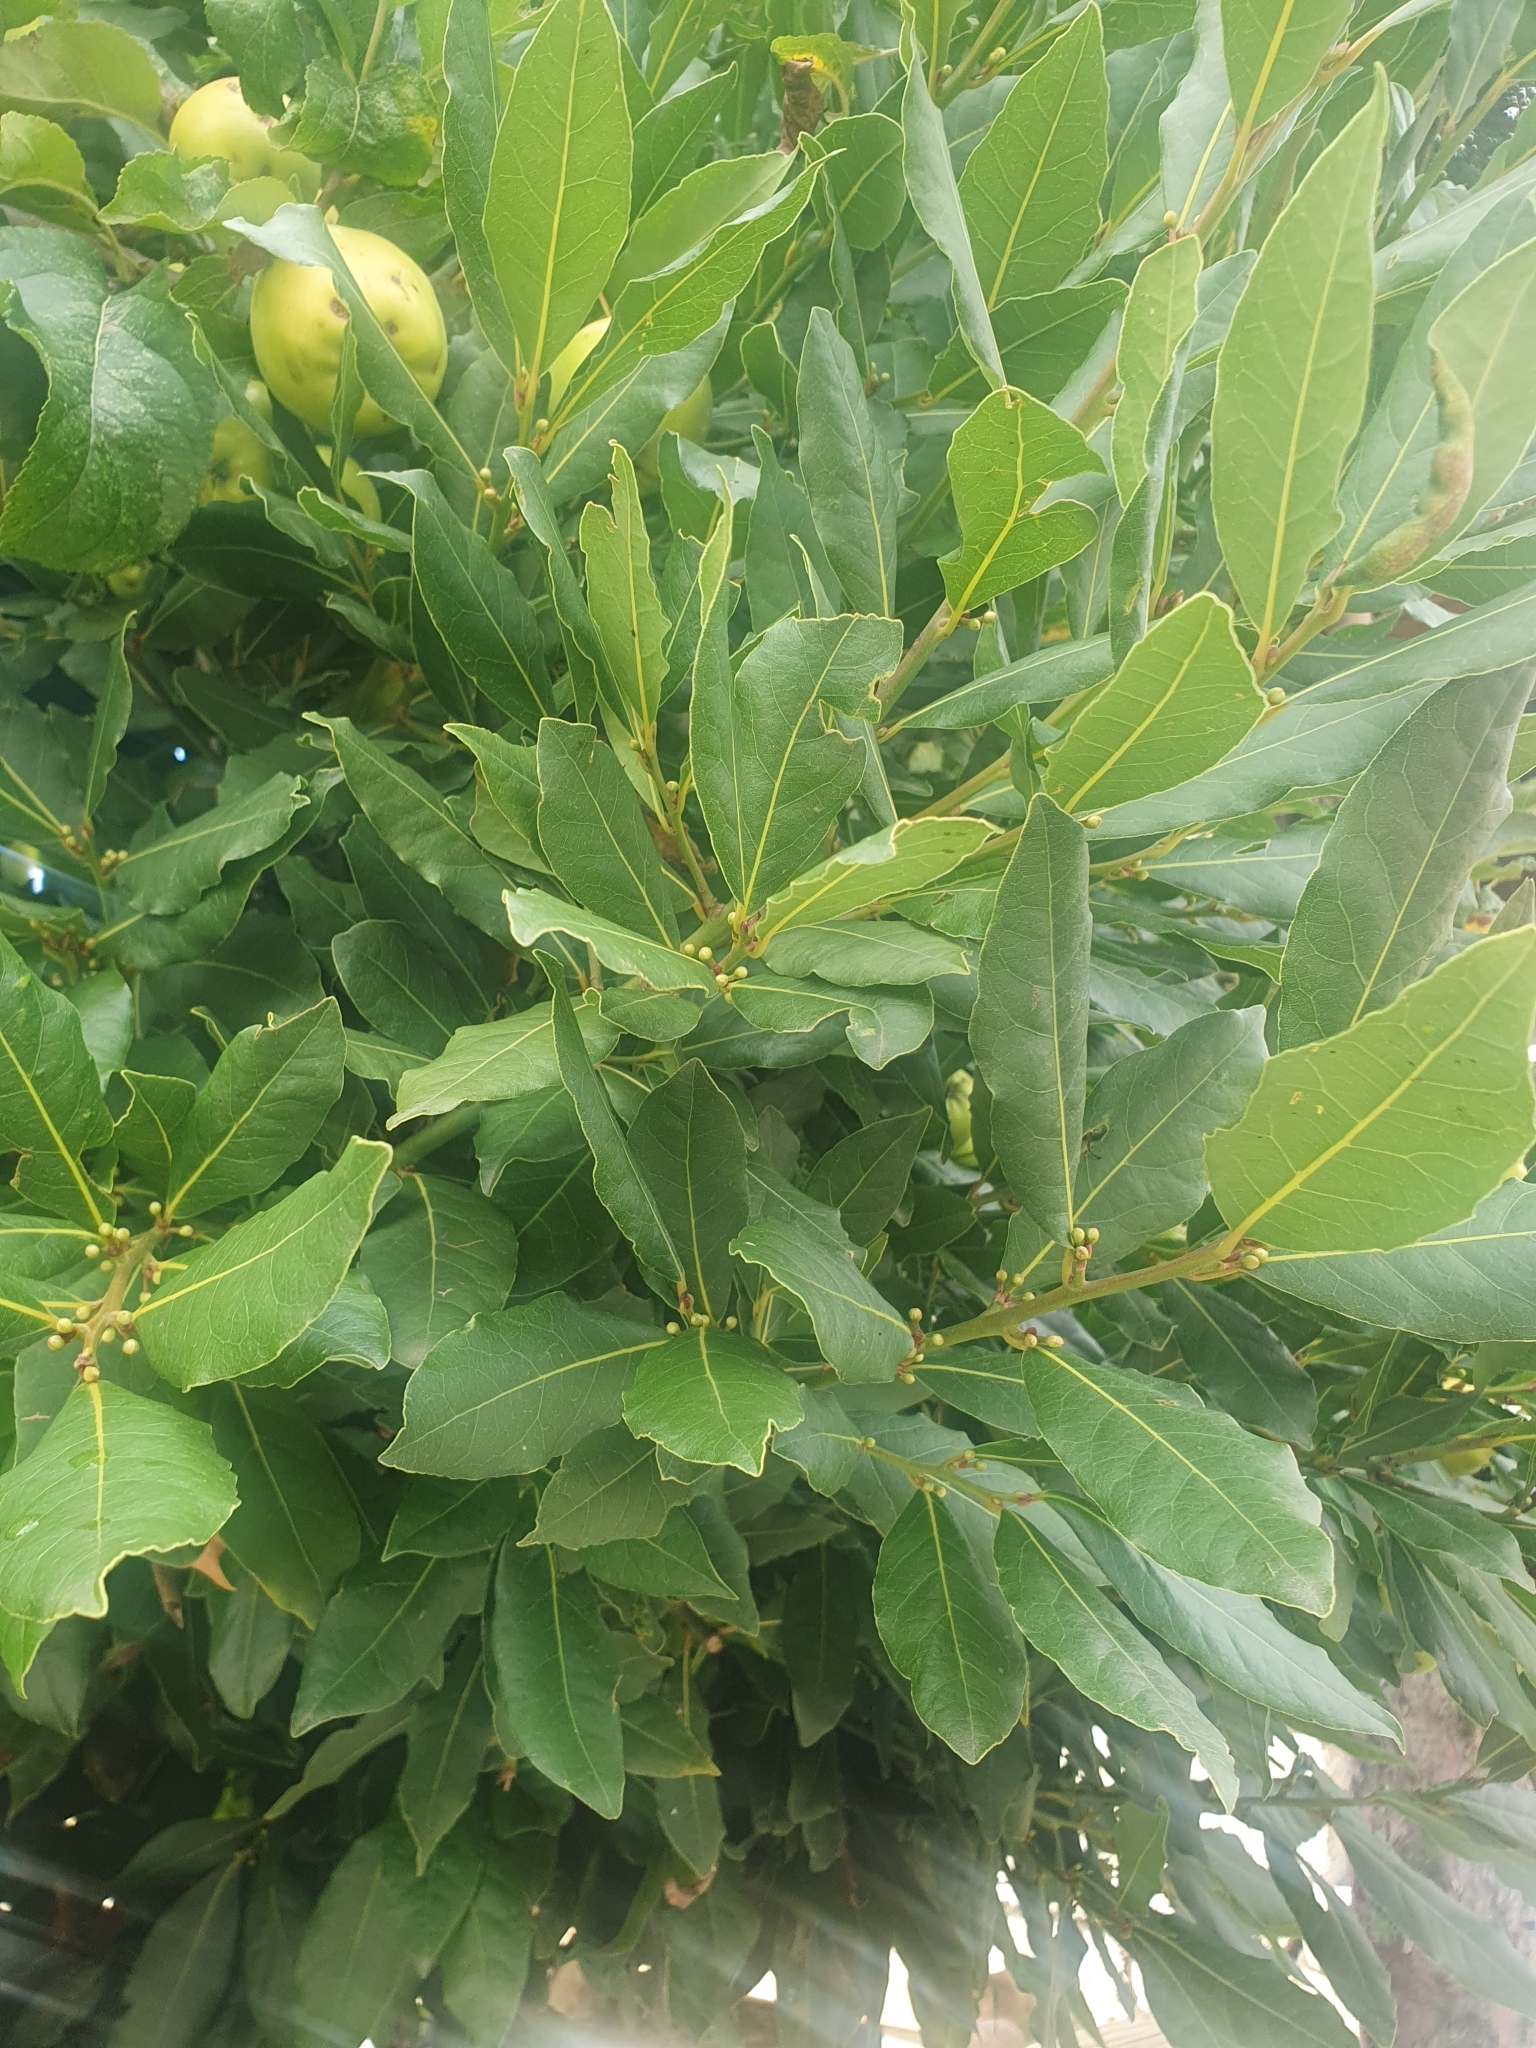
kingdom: Plantae
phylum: Tracheophyta
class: Magnoliopsida
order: Laurales
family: Lauraceae
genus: Laurus
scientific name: Laurus nobilis
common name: Bay
